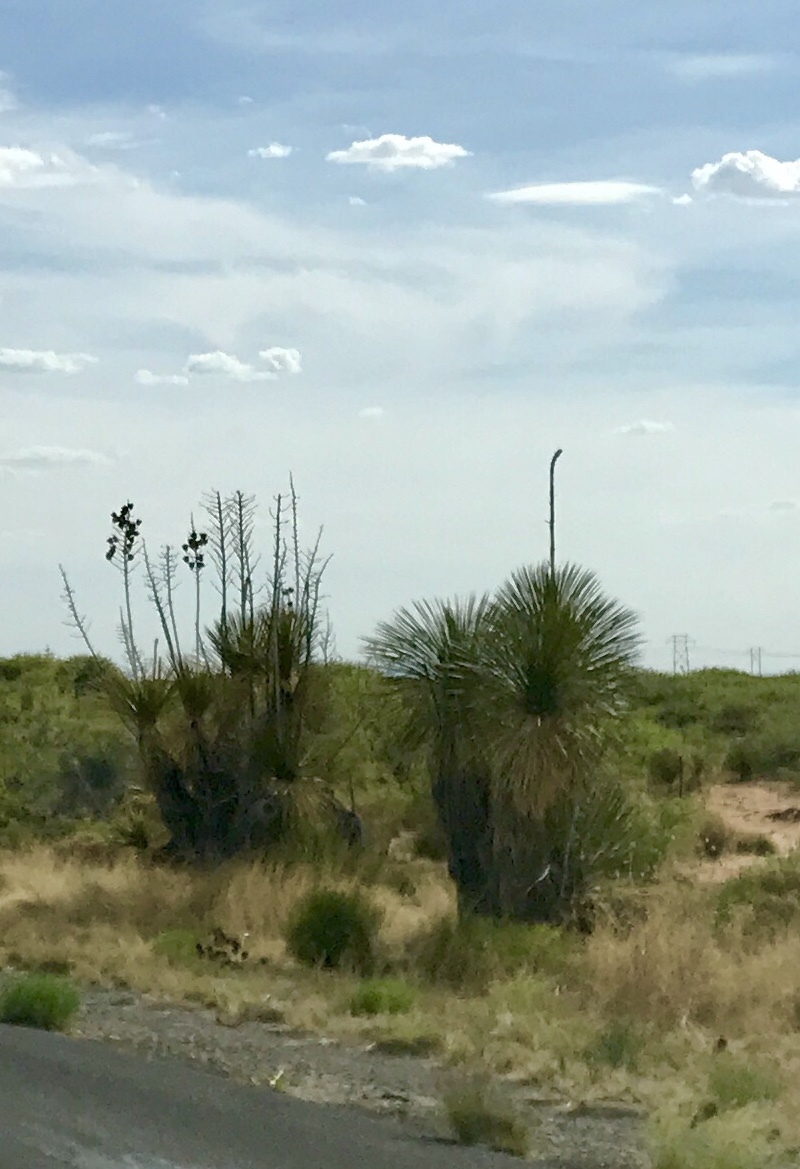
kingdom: Plantae
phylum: Tracheophyta
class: Liliopsida
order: Asparagales
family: Asparagaceae
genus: Yucca
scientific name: Yucca elata
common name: Palmella
